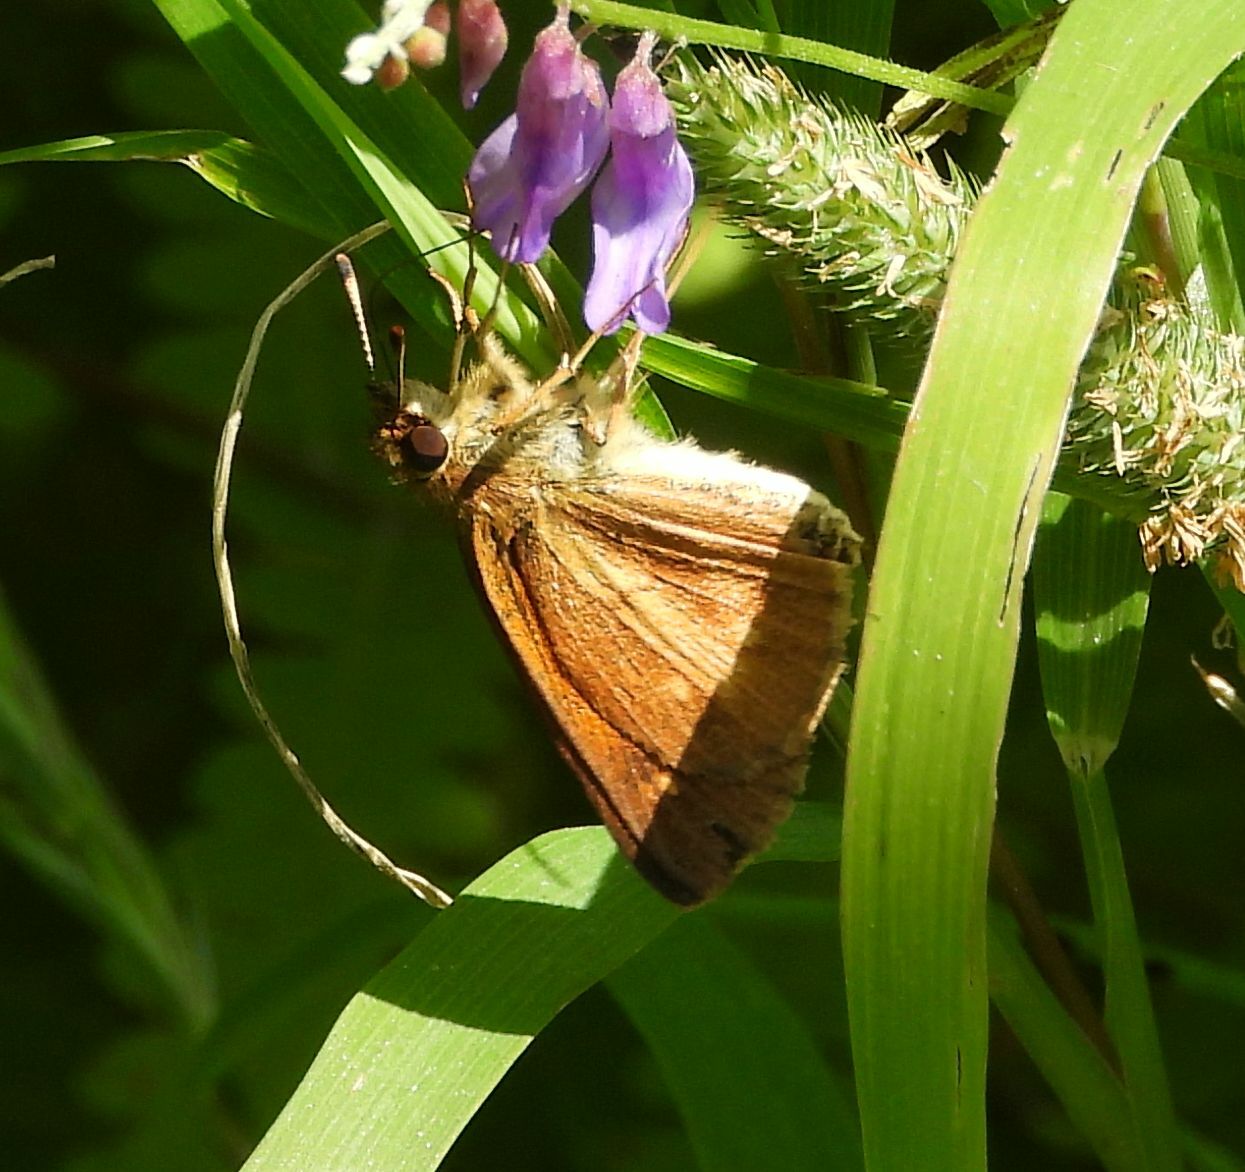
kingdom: Animalia
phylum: Arthropoda
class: Insecta
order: Lepidoptera
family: Hesperiidae
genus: Poanes
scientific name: Poanes viator
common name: Broad-winged skipper
